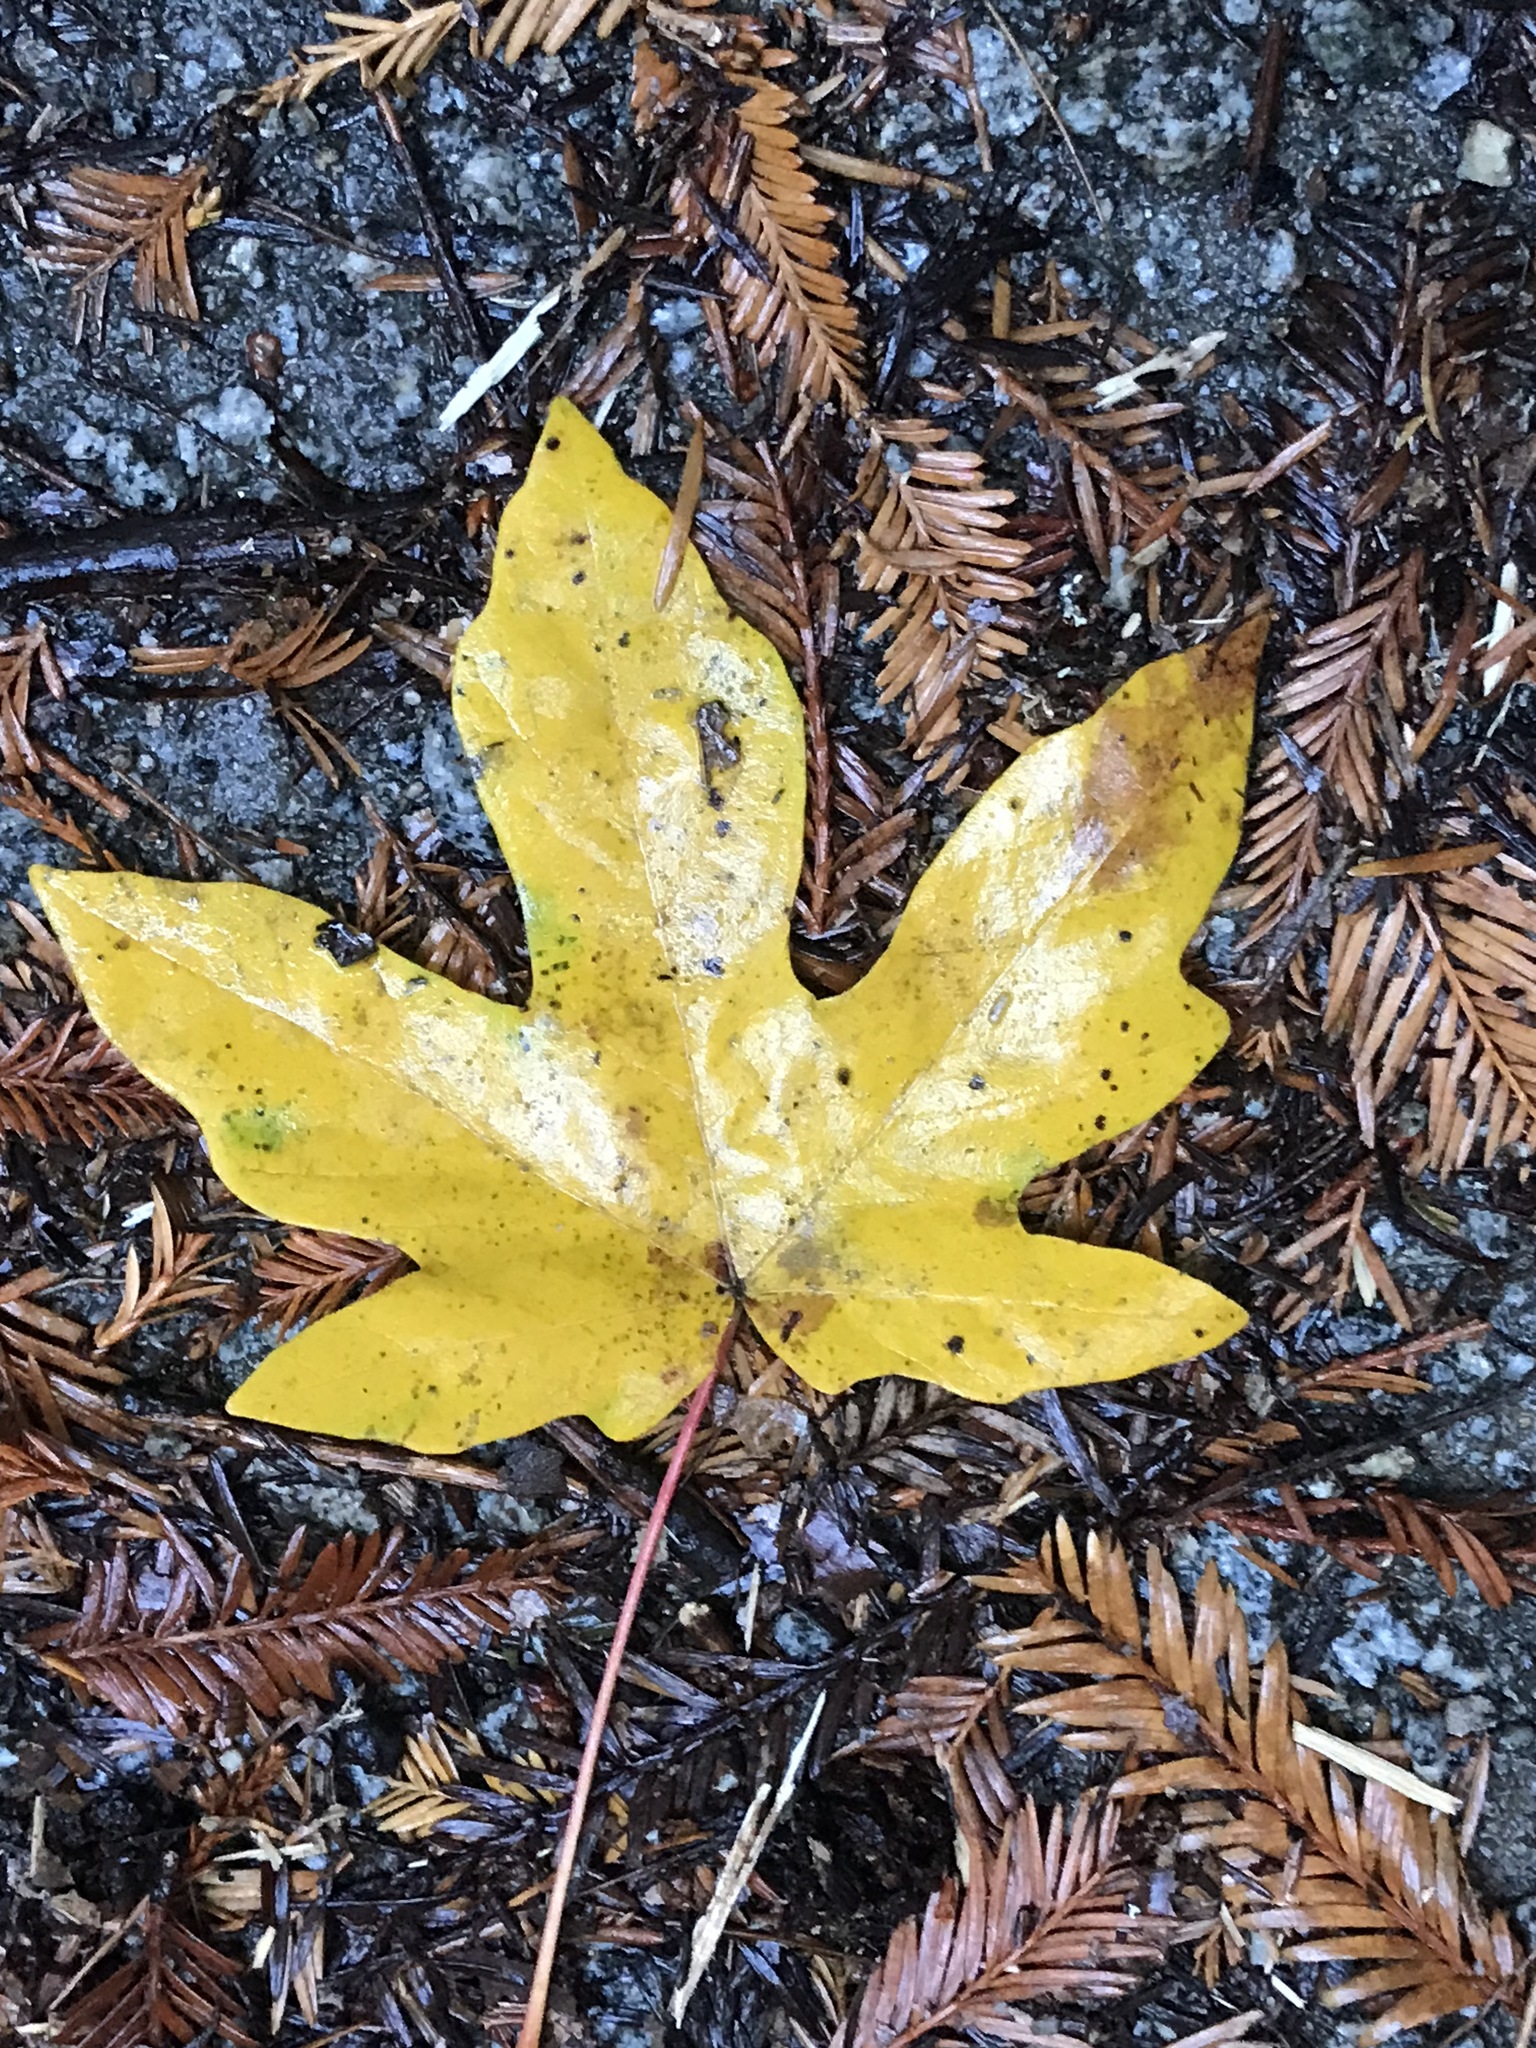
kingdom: Plantae
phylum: Tracheophyta
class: Magnoliopsida
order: Sapindales
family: Sapindaceae
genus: Acer
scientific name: Acer macrophyllum
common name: Oregon maple
